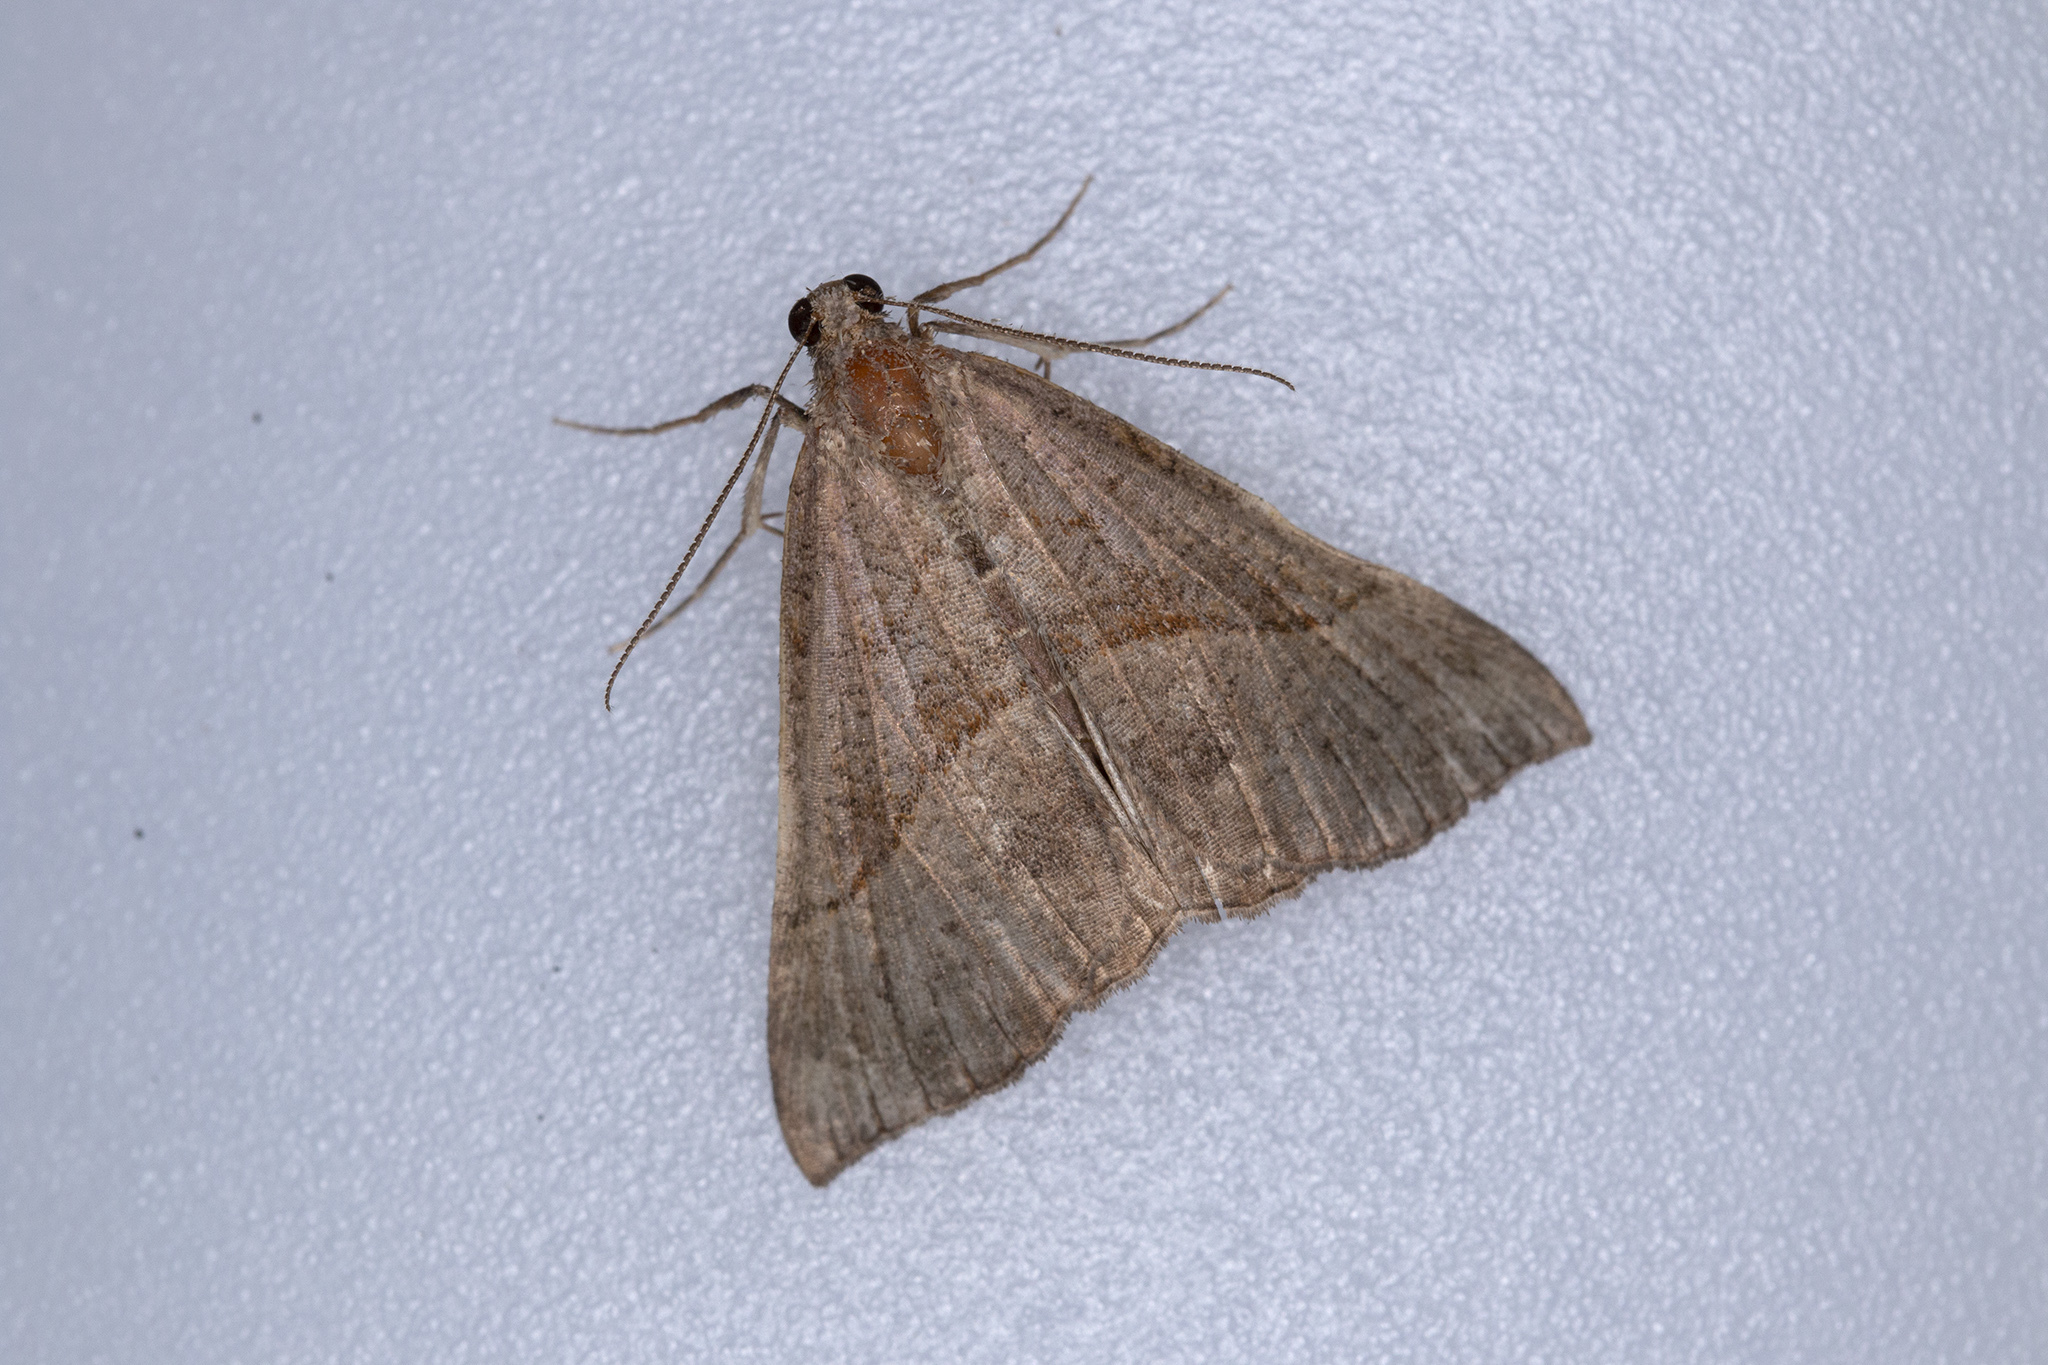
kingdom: Animalia
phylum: Arthropoda
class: Insecta
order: Lepidoptera
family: Erebidae
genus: Hypena
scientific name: Hypena proboscidalis
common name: Snout
